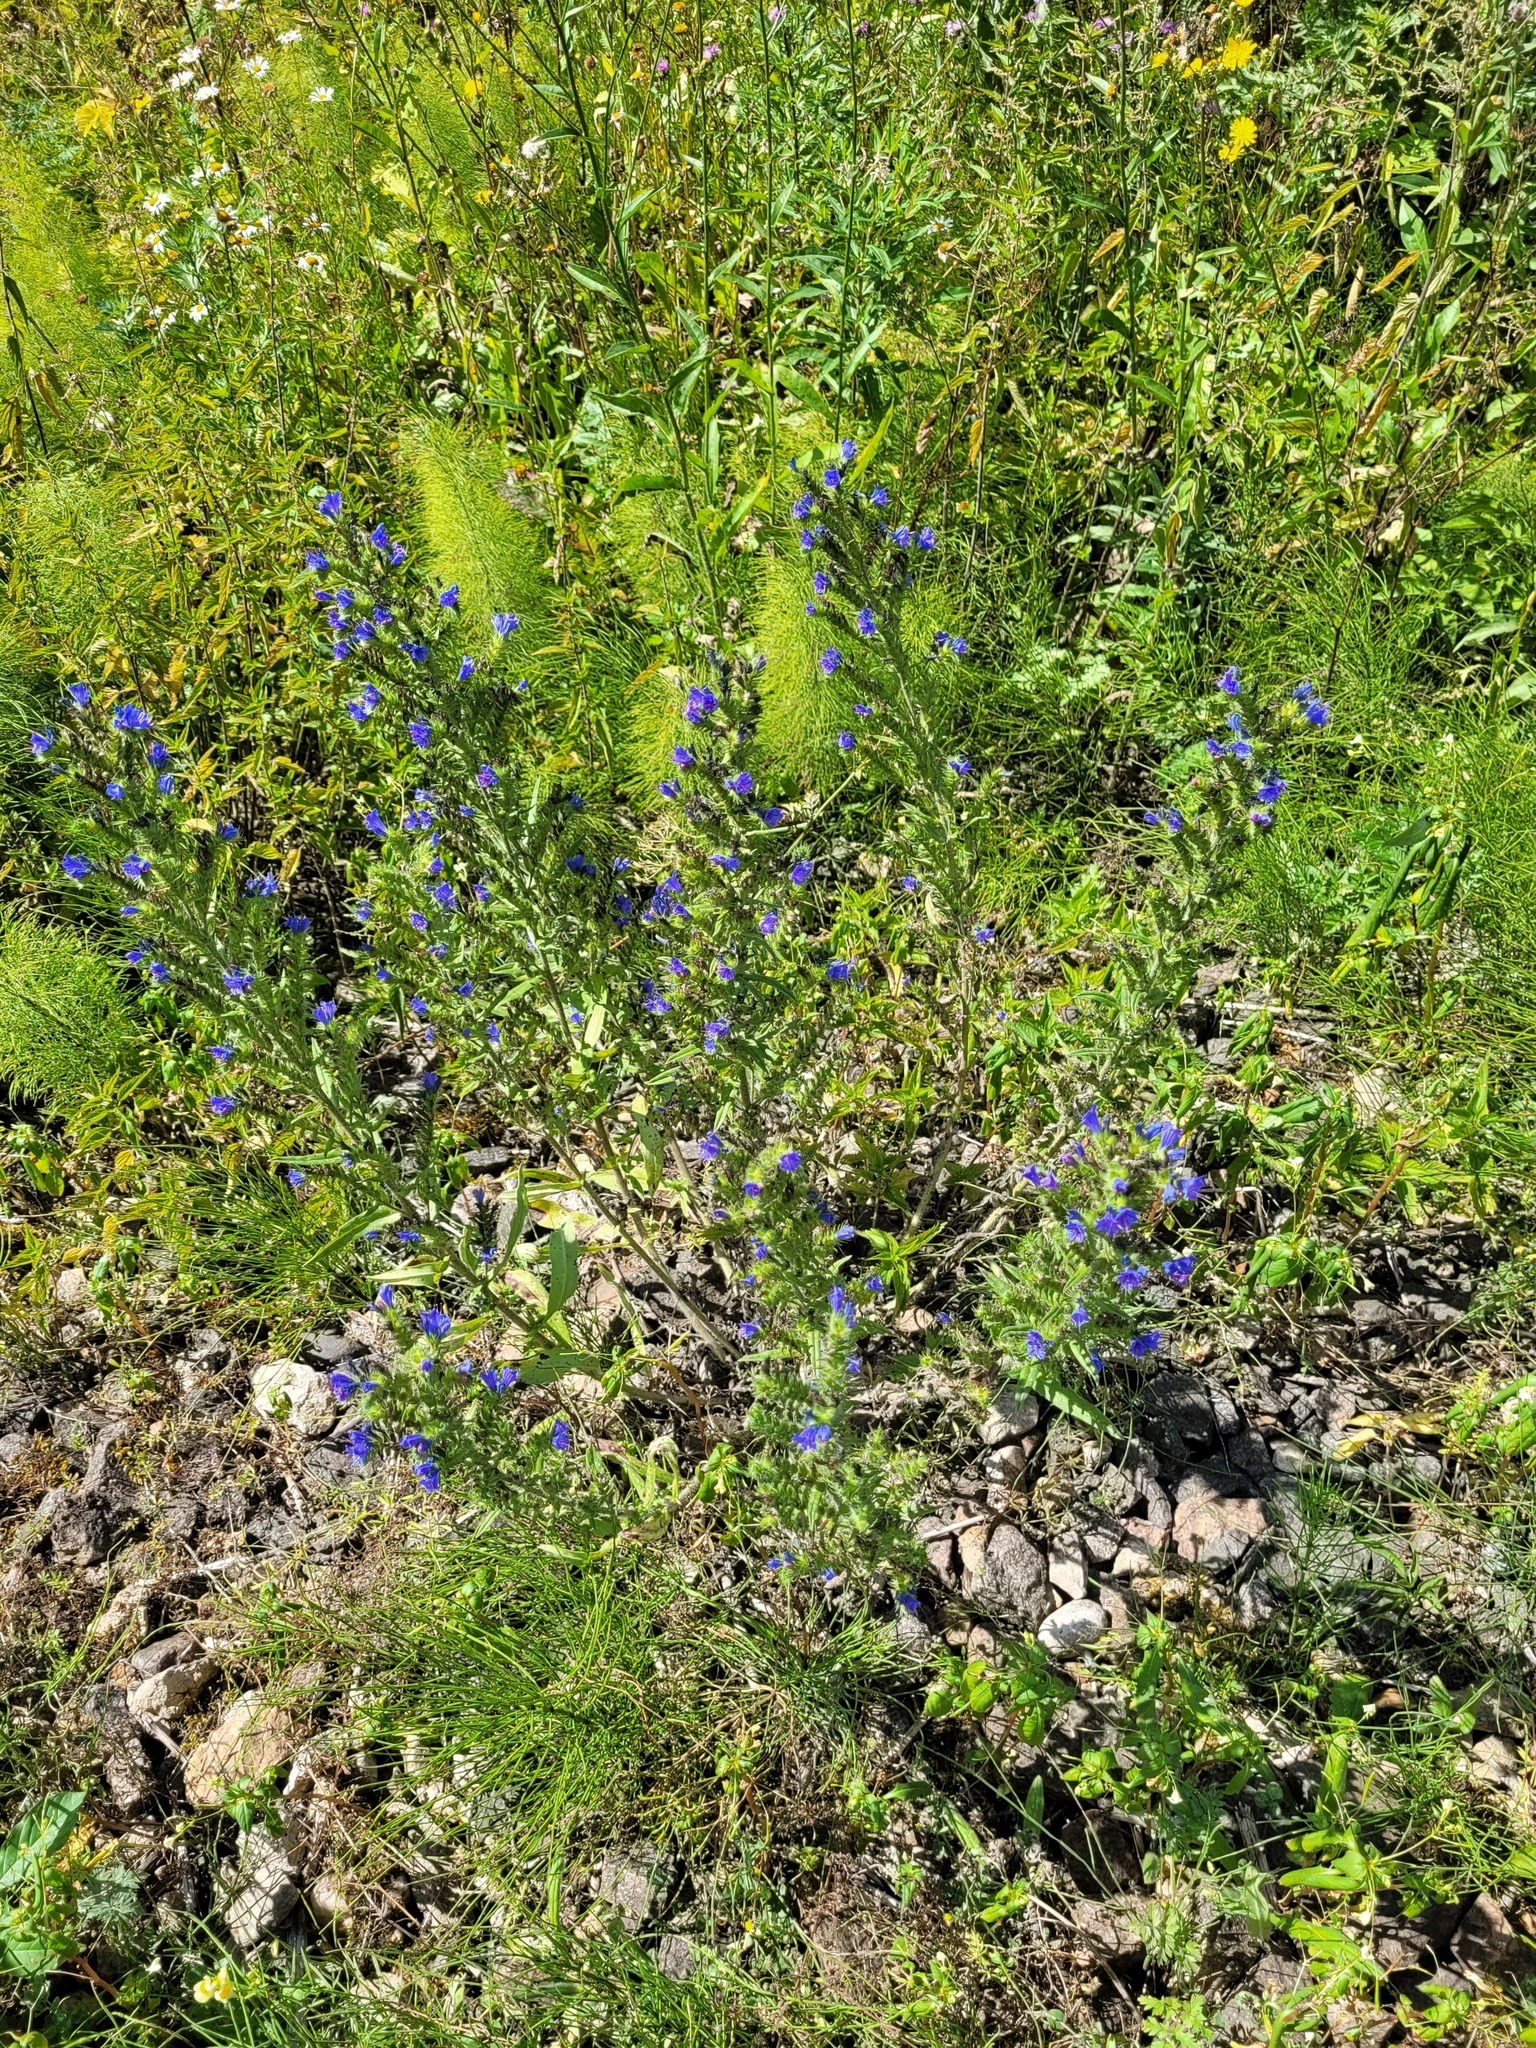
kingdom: Plantae
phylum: Tracheophyta
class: Magnoliopsida
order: Boraginales
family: Boraginaceae
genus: Echium
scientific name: Echium vulgare
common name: Common viper's bugloss
